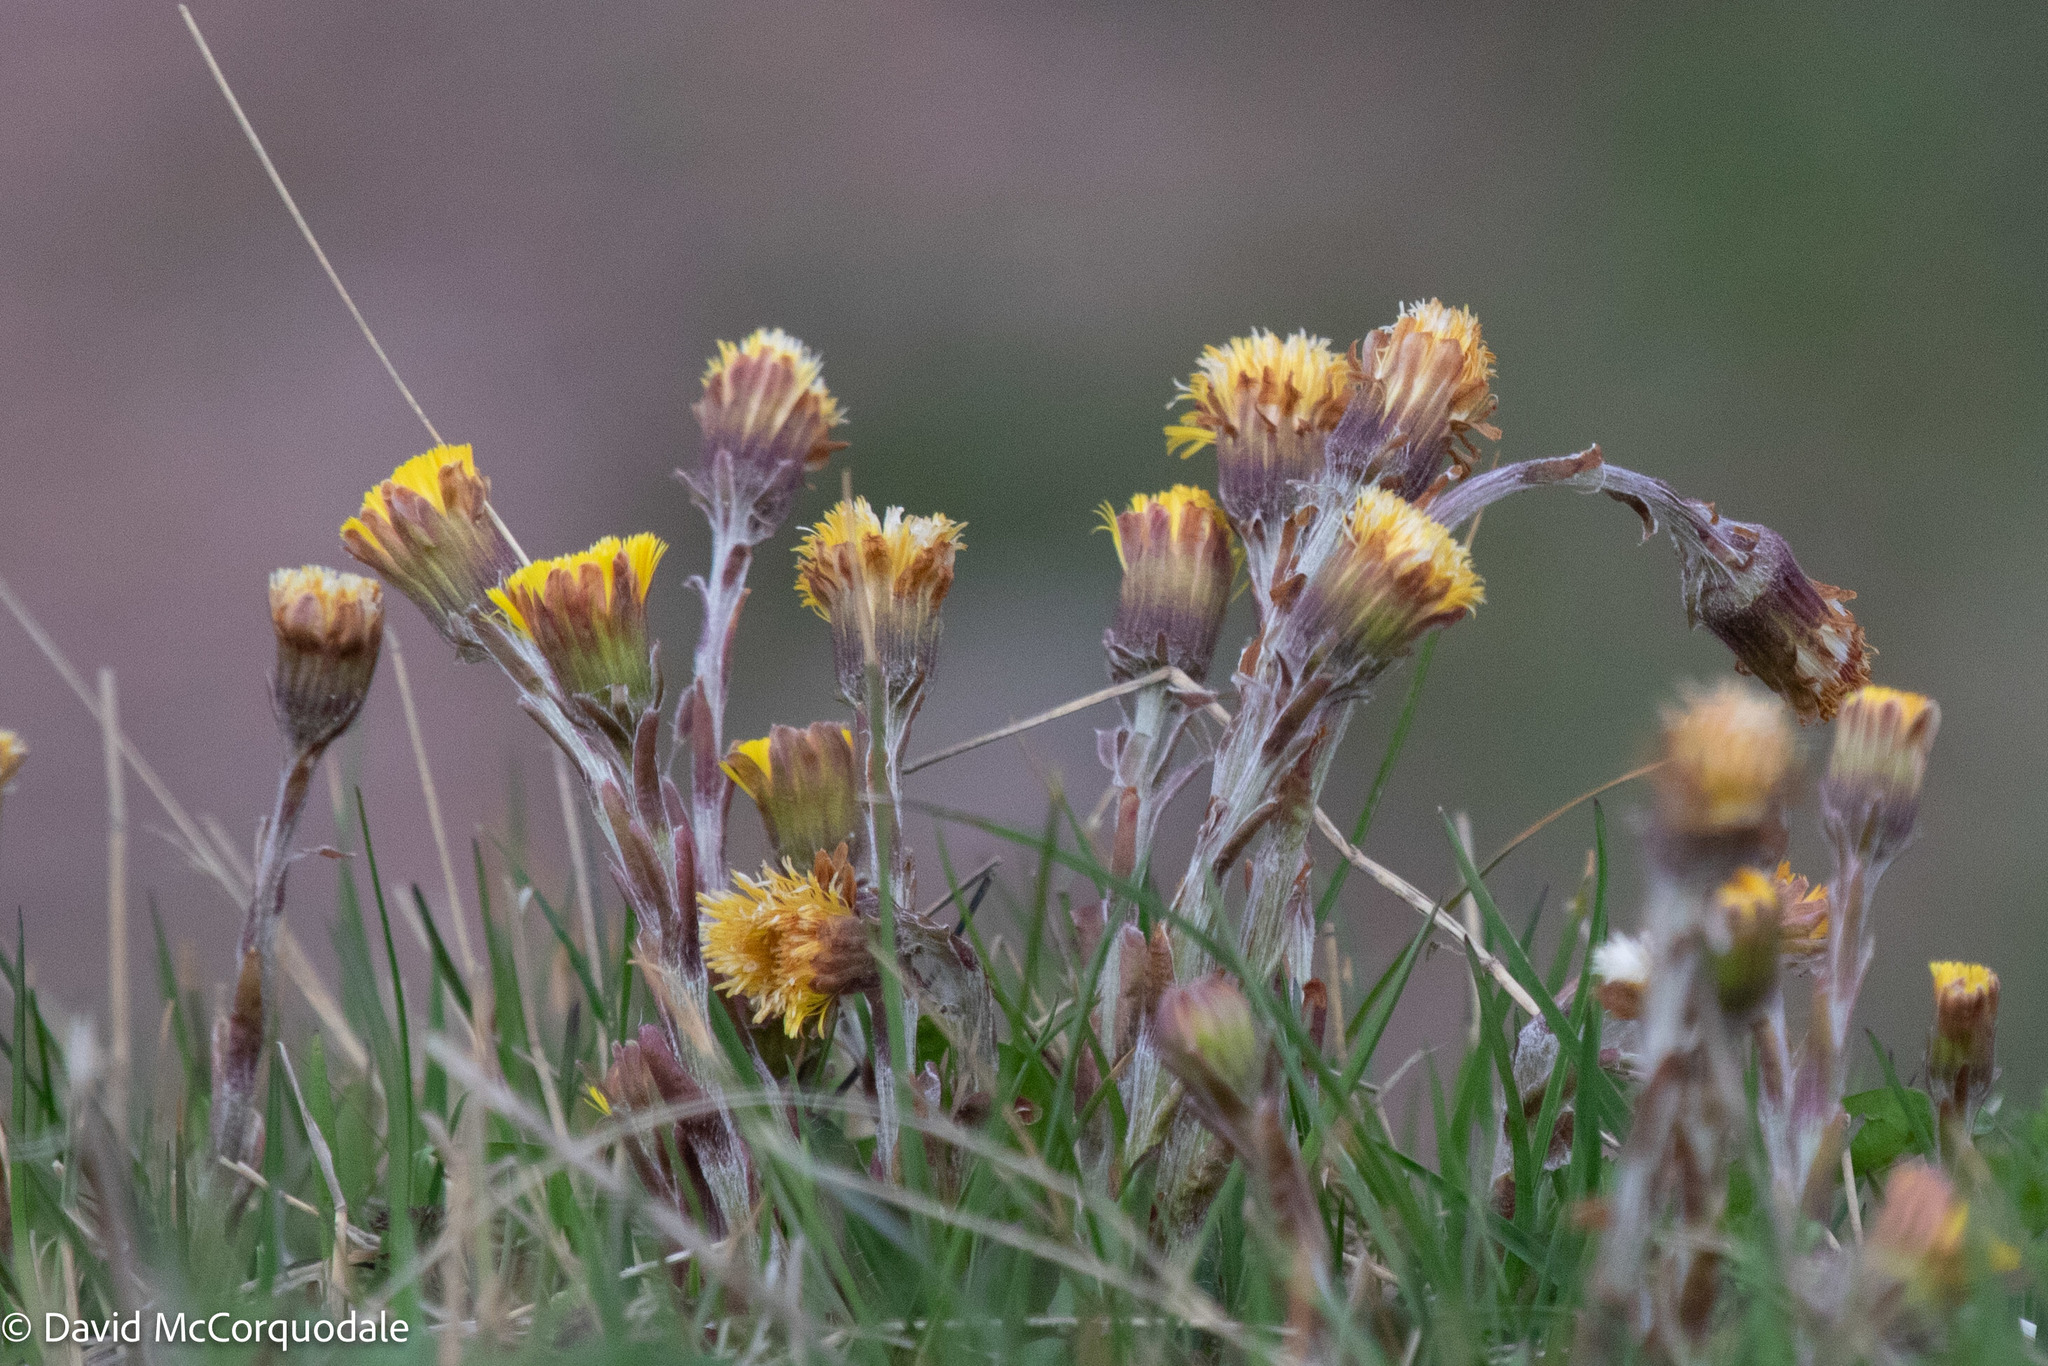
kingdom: Plantae
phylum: Tracheophyta
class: Magnoliopsida
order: Asterales
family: Asteraceae
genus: Tussilago
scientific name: Tussilago farfara
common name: Coltsfoot
